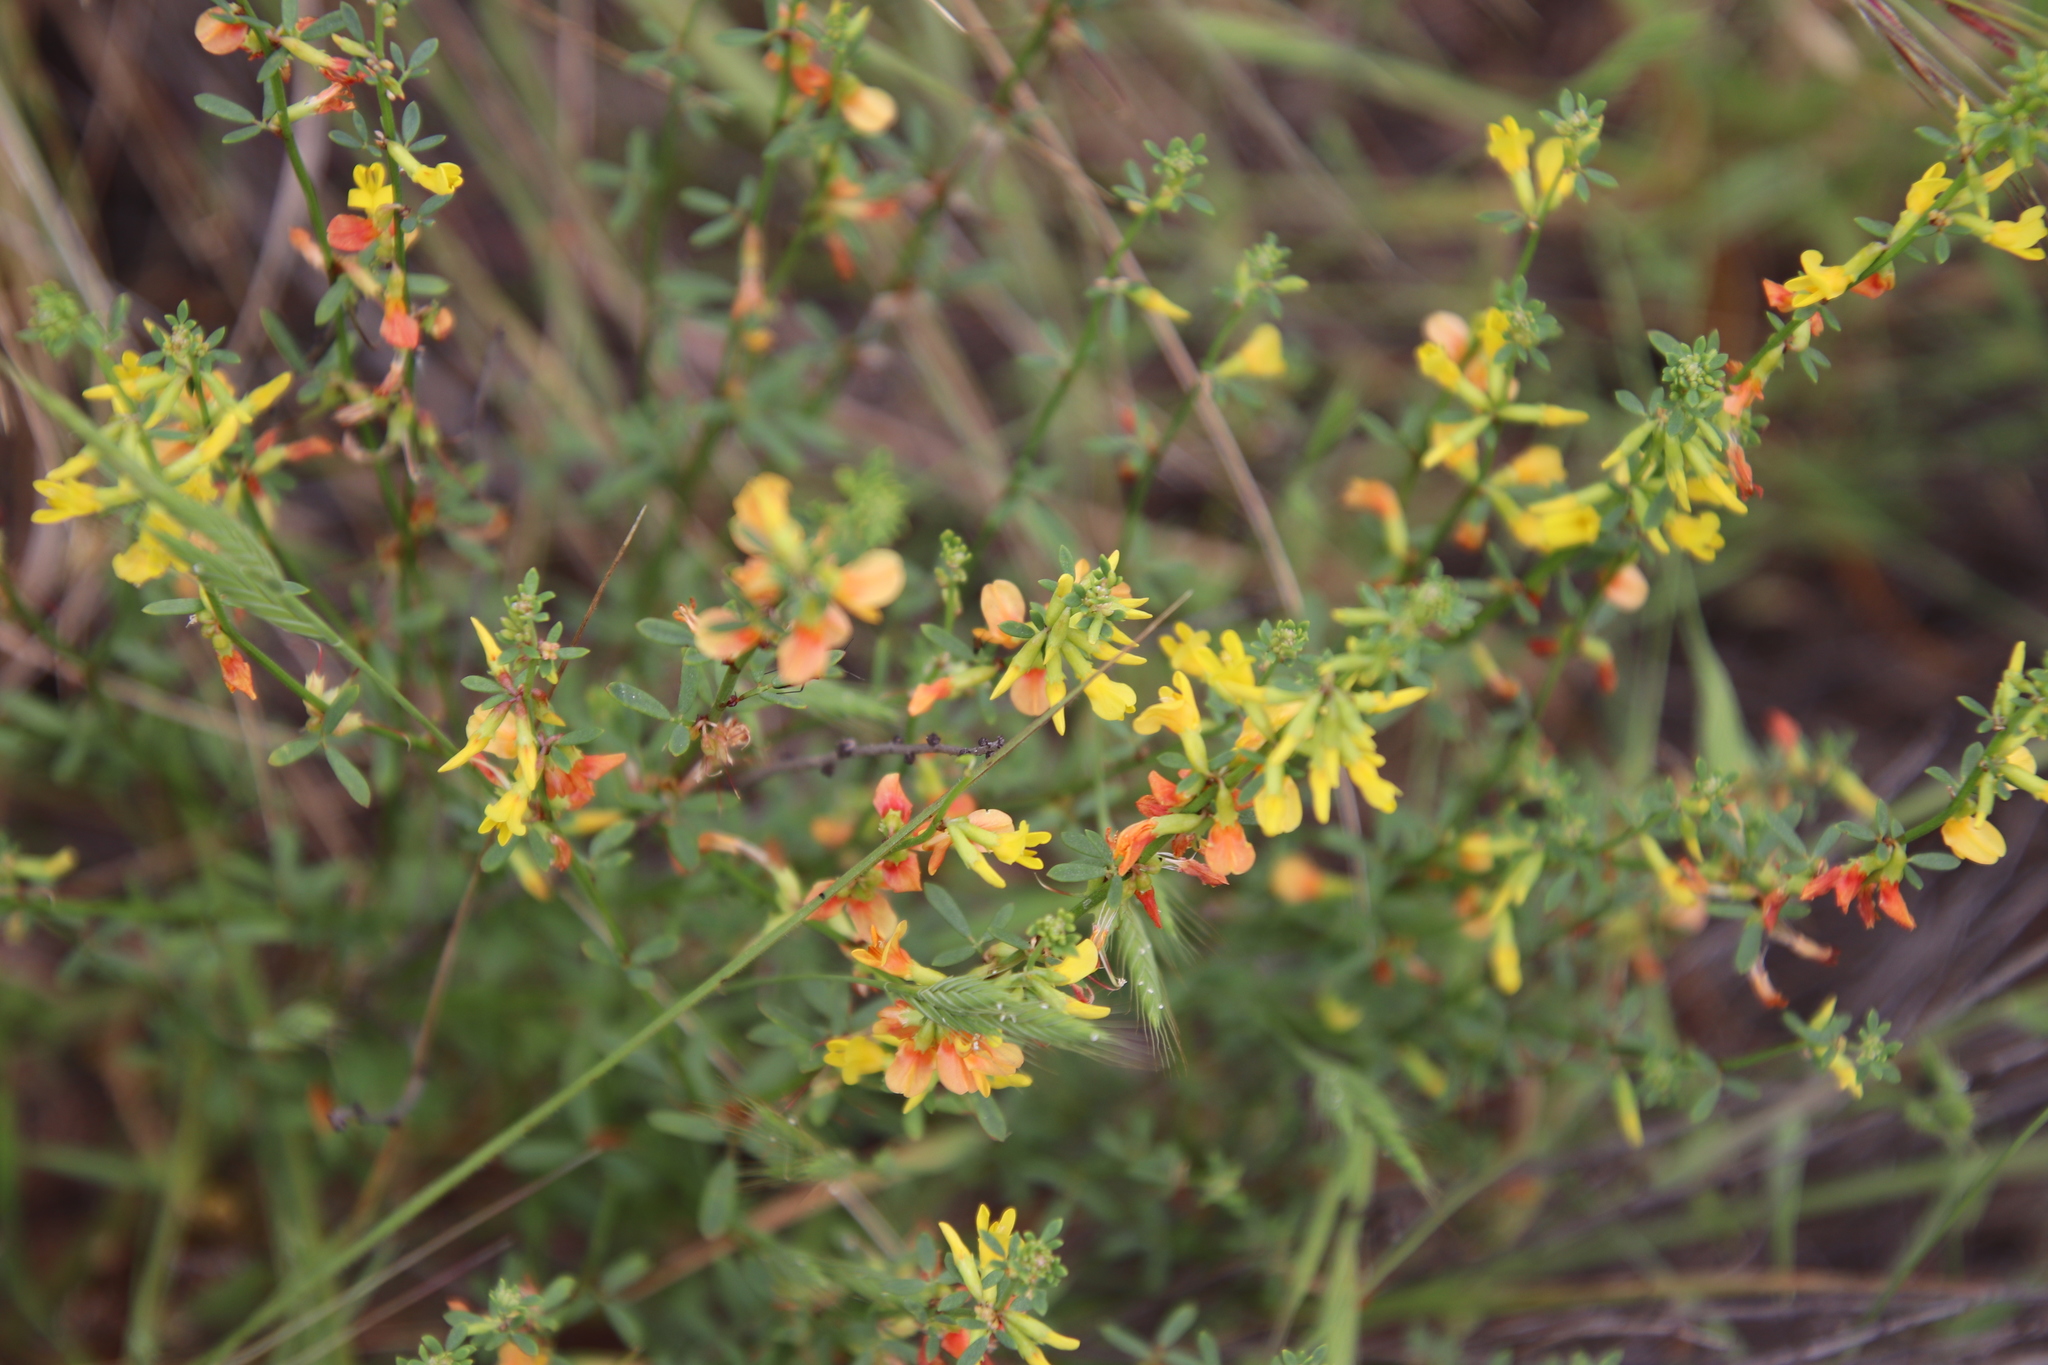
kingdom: Plantae
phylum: Tracheophyta
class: Magnoliopsida
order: Fabales
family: Fabaceae
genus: Acmispon
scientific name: Acmispon glaber
